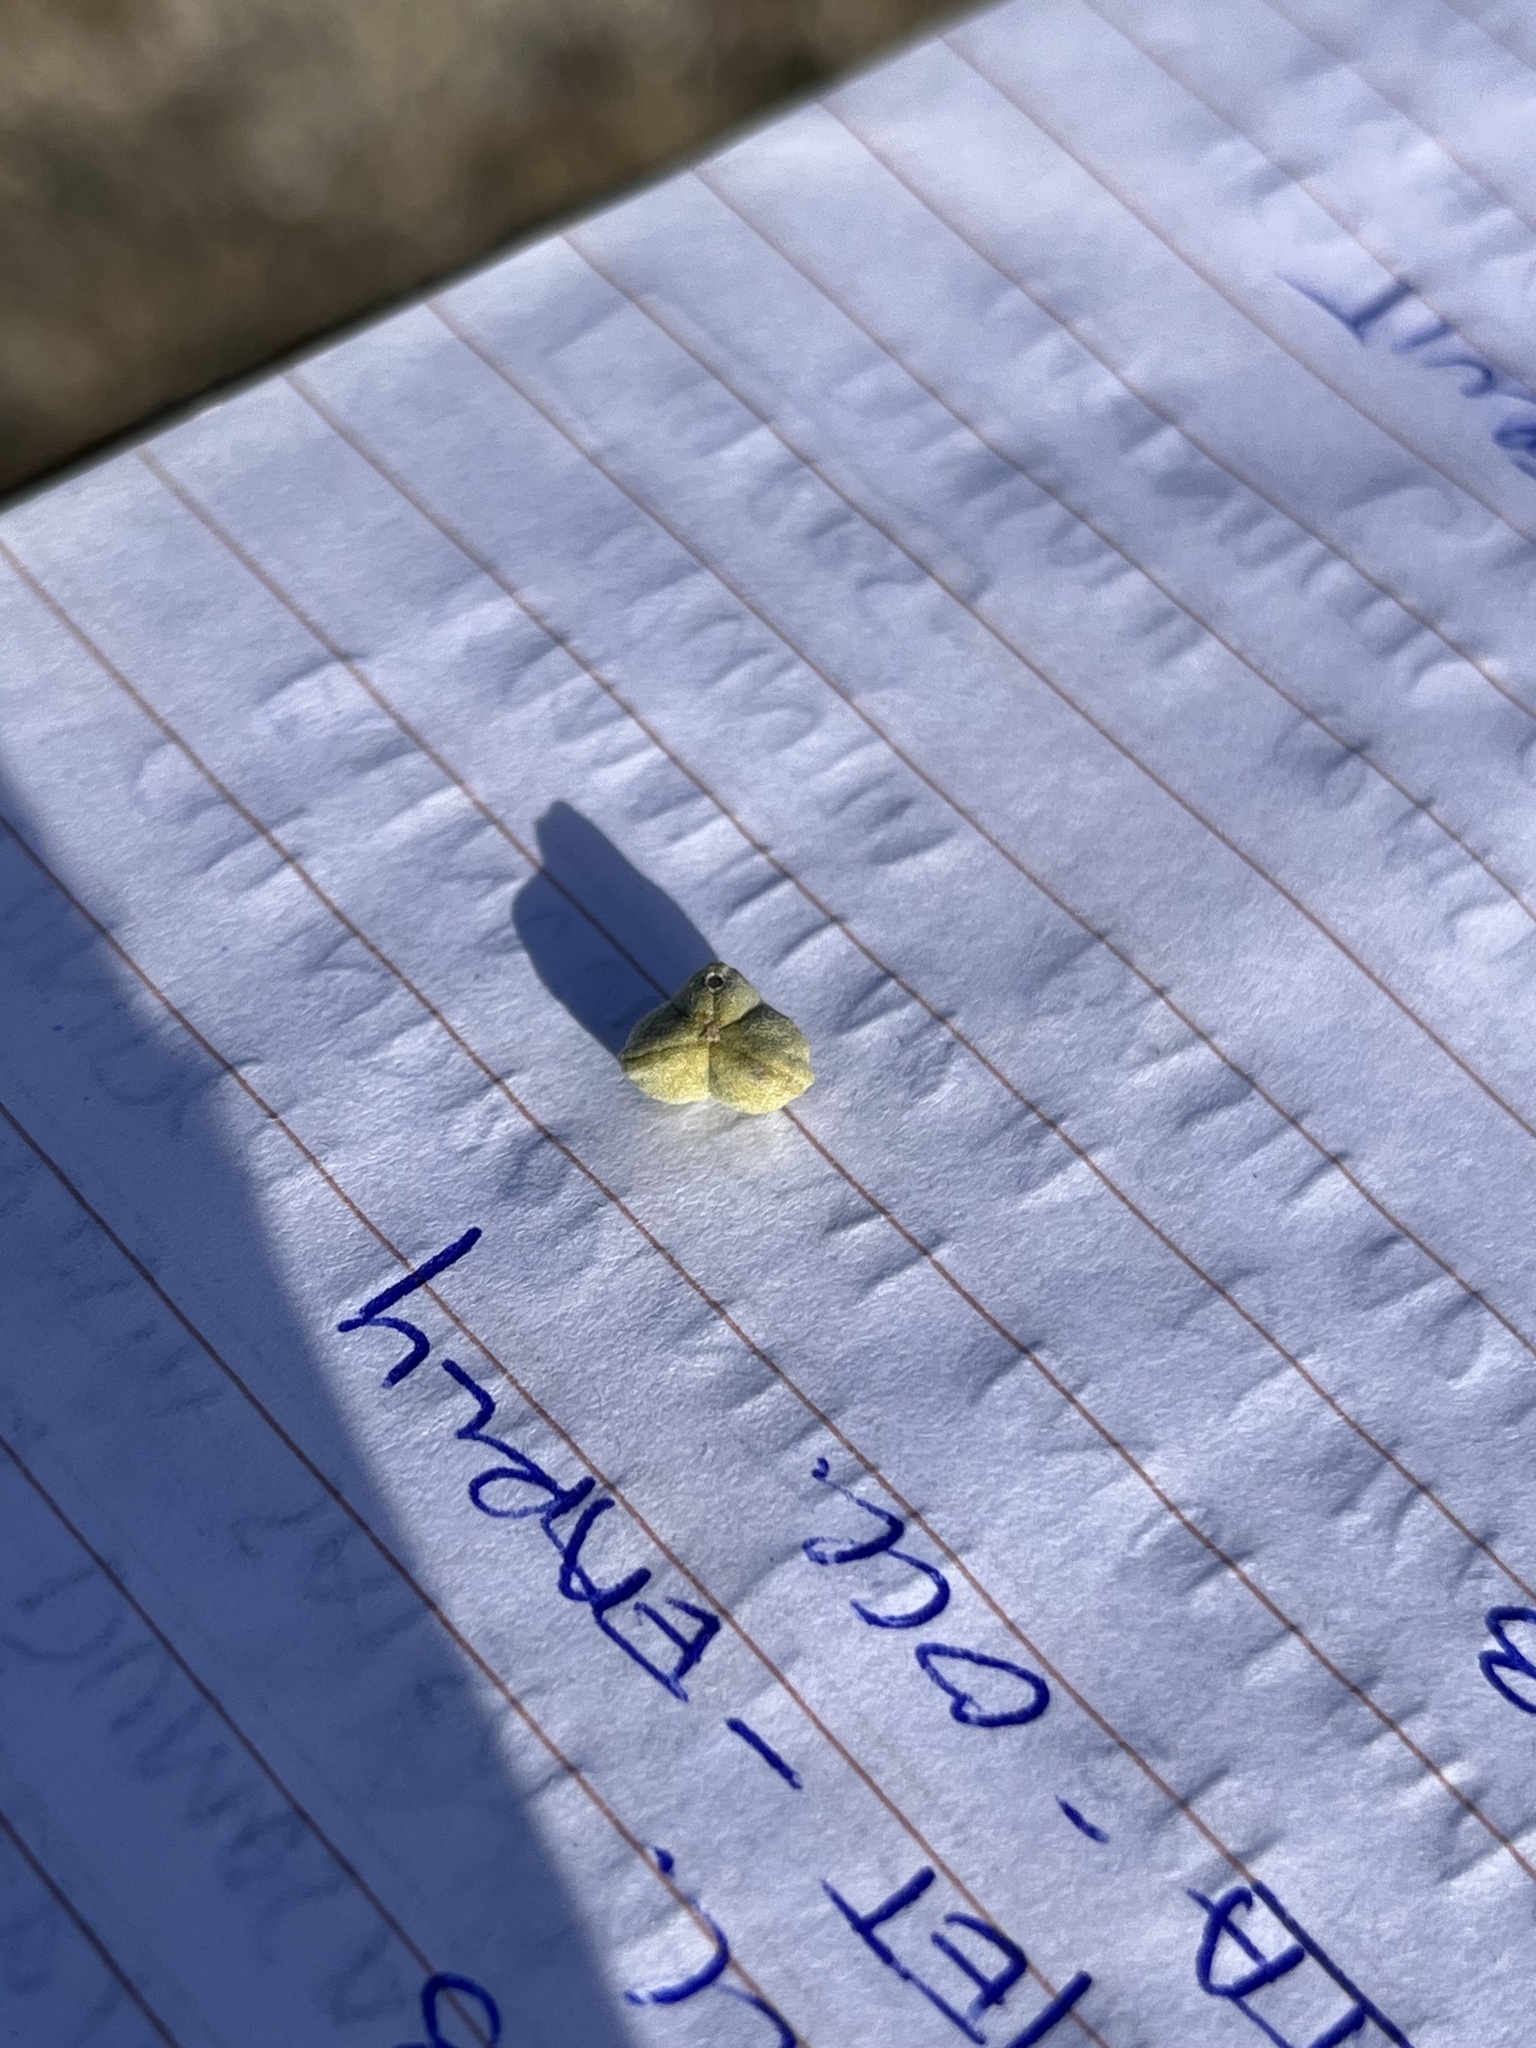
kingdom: Plantae
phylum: Tracheophyta
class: Magnoliopsida
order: Malpighiales
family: Euphorbiaceae
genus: Bernardia
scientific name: Bernardia incana
